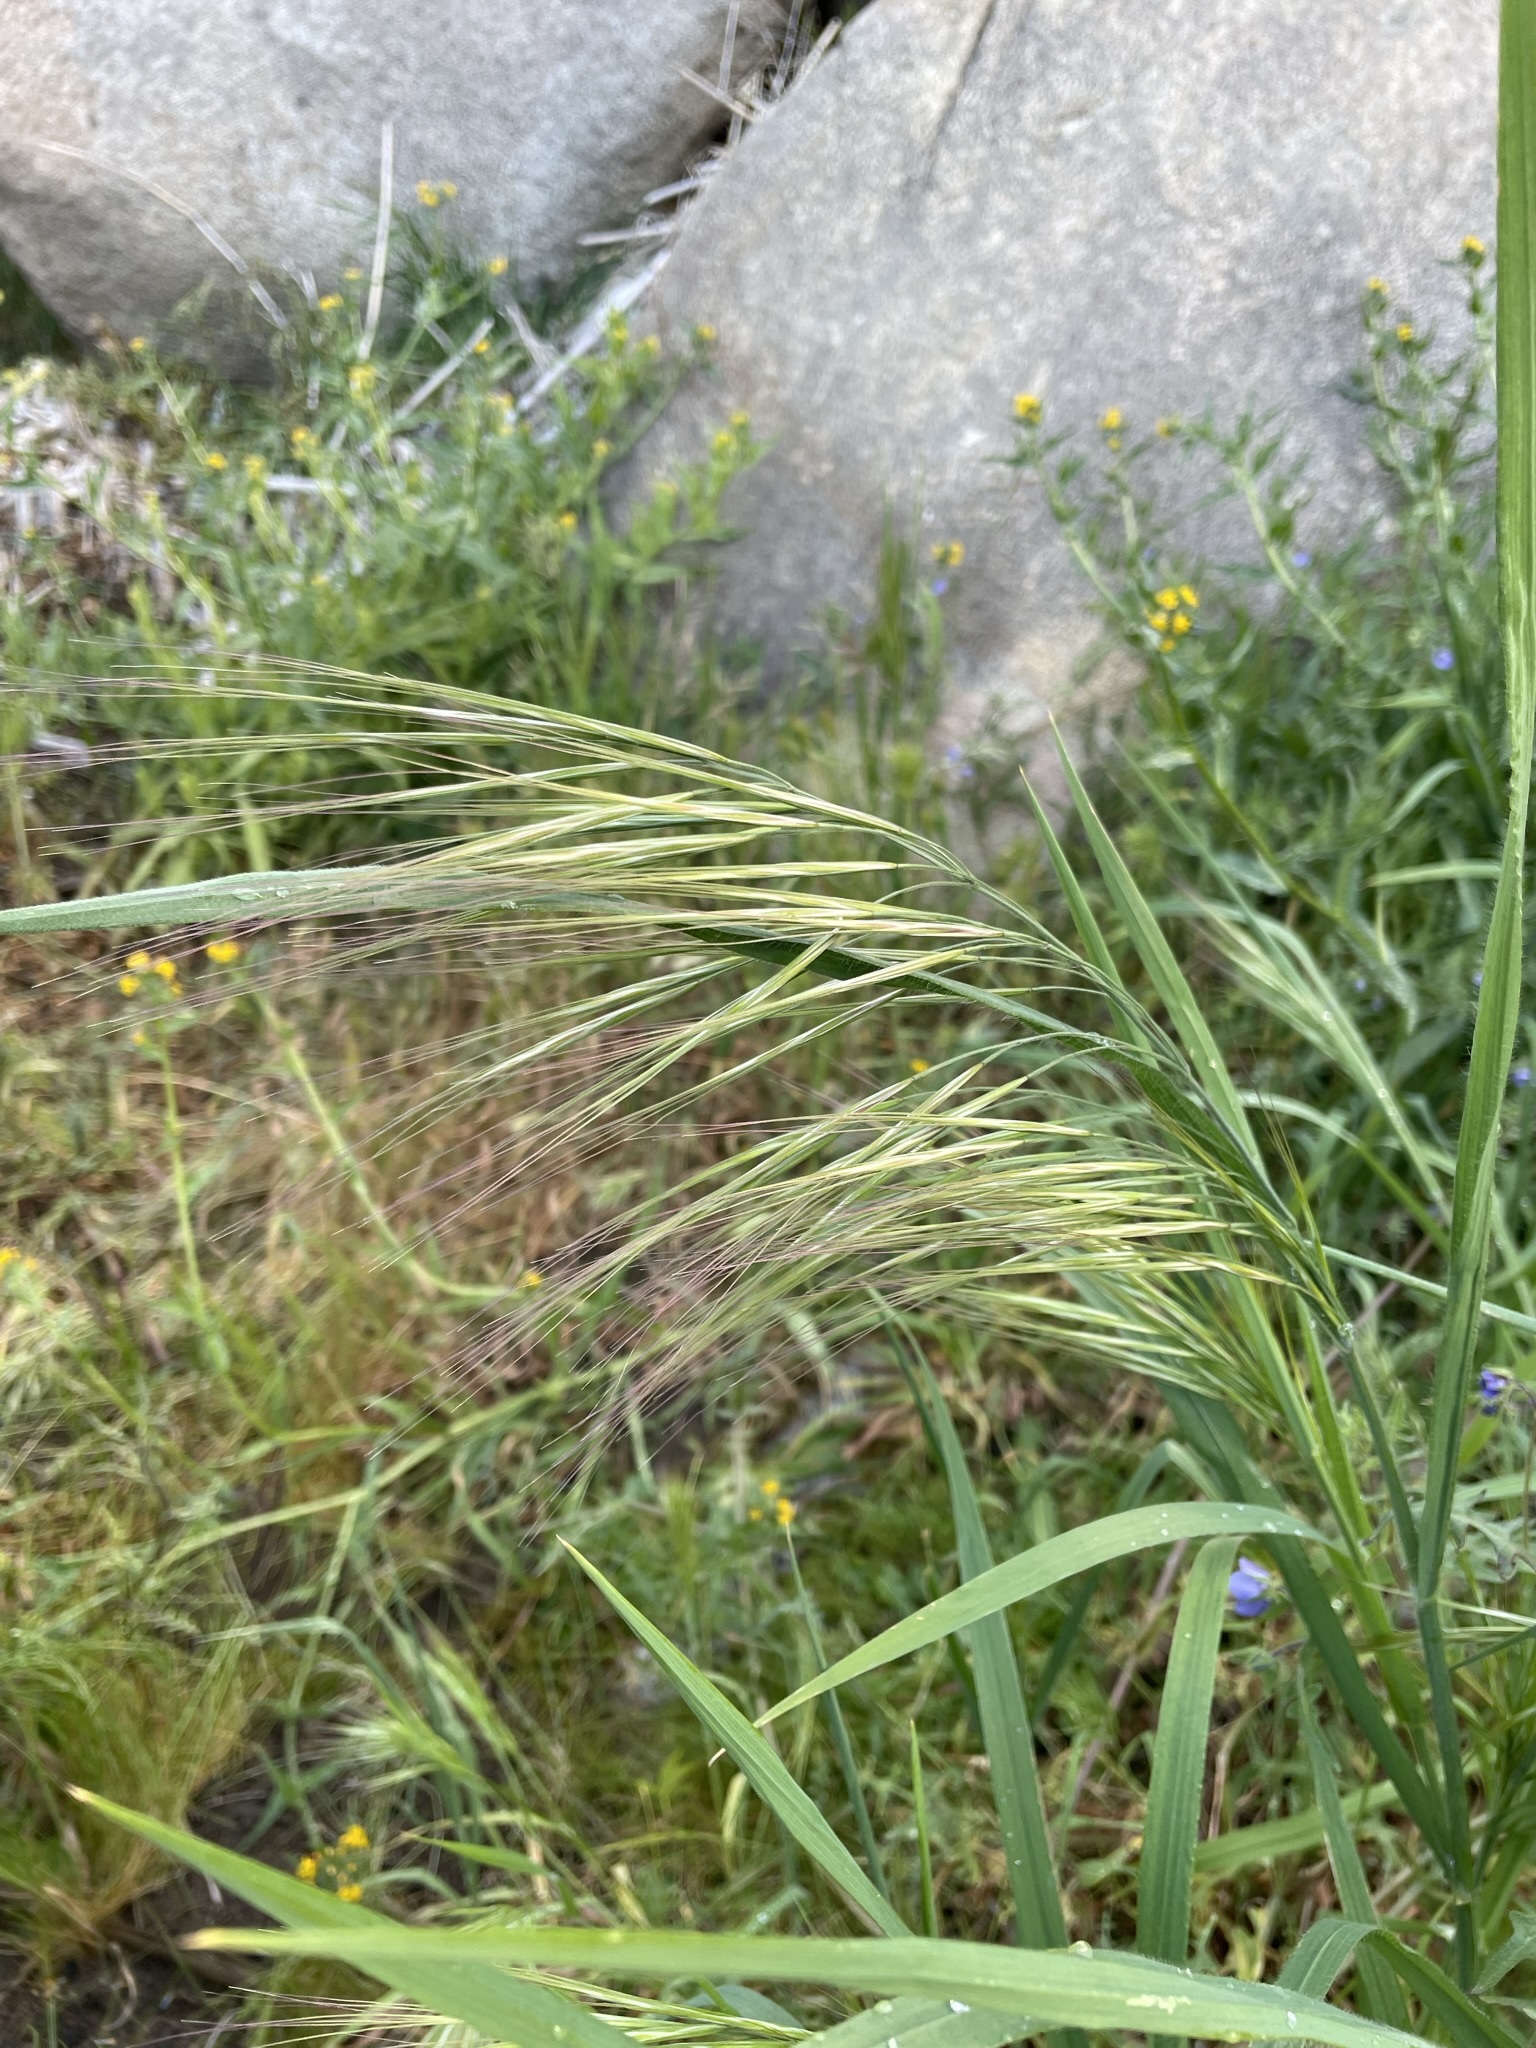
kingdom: Plantae
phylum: Tracheophyta
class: Liliopsida
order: Poales
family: Poaceae
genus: Bromus
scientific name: Bromus diandrus
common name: Ripgut brome
